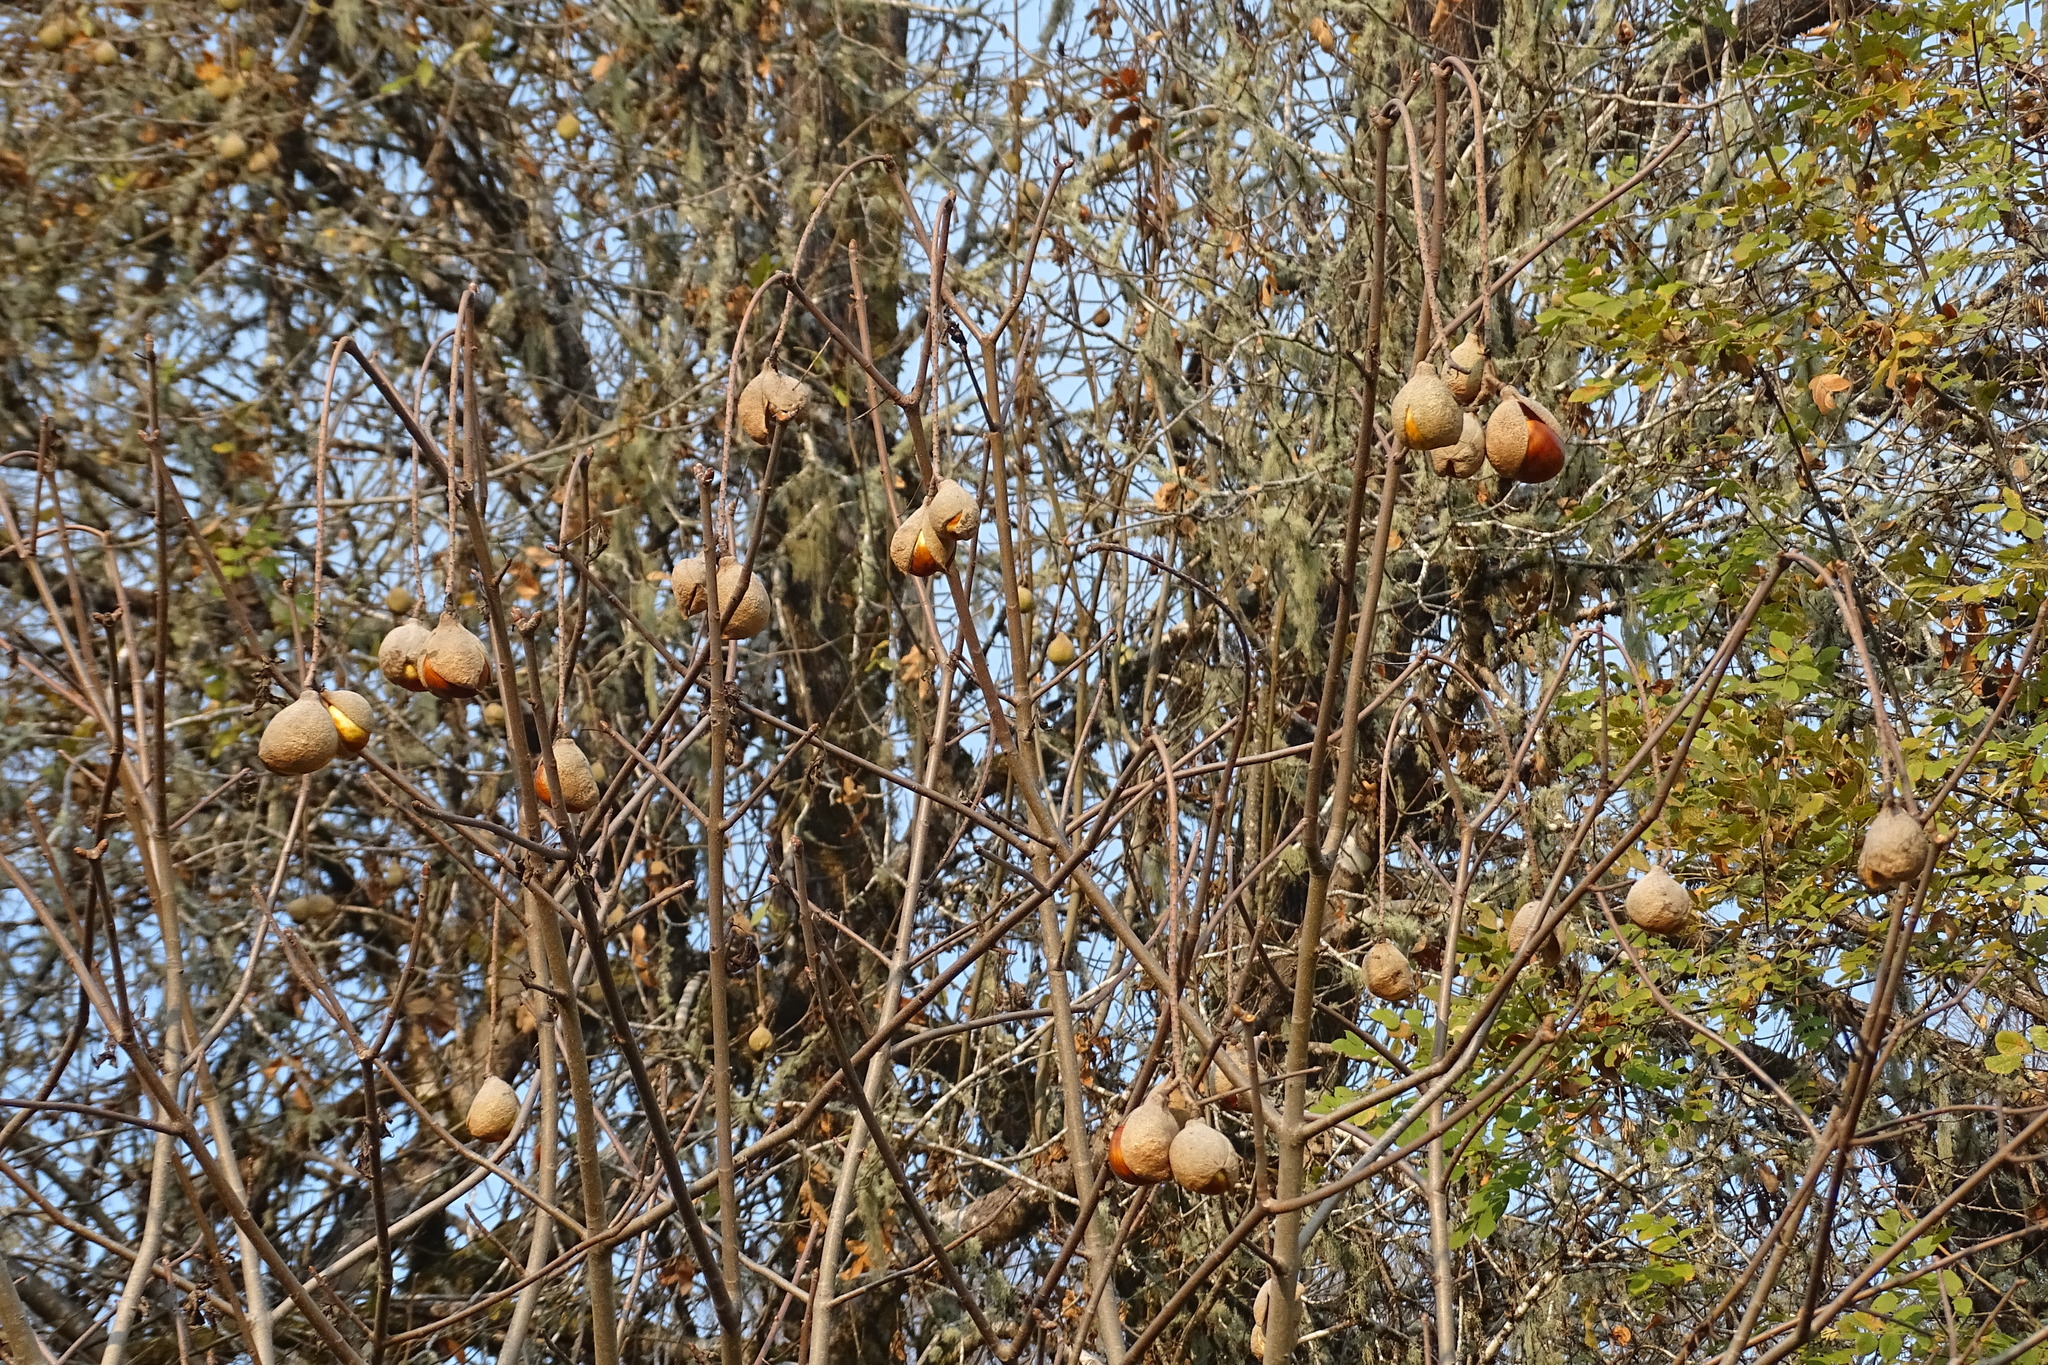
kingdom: Plantae
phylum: Tracheophyta
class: Magnoliopsida
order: Sapindales
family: Sapindaceae
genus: Aesculus
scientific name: Aesculus californica
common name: California buckeye
